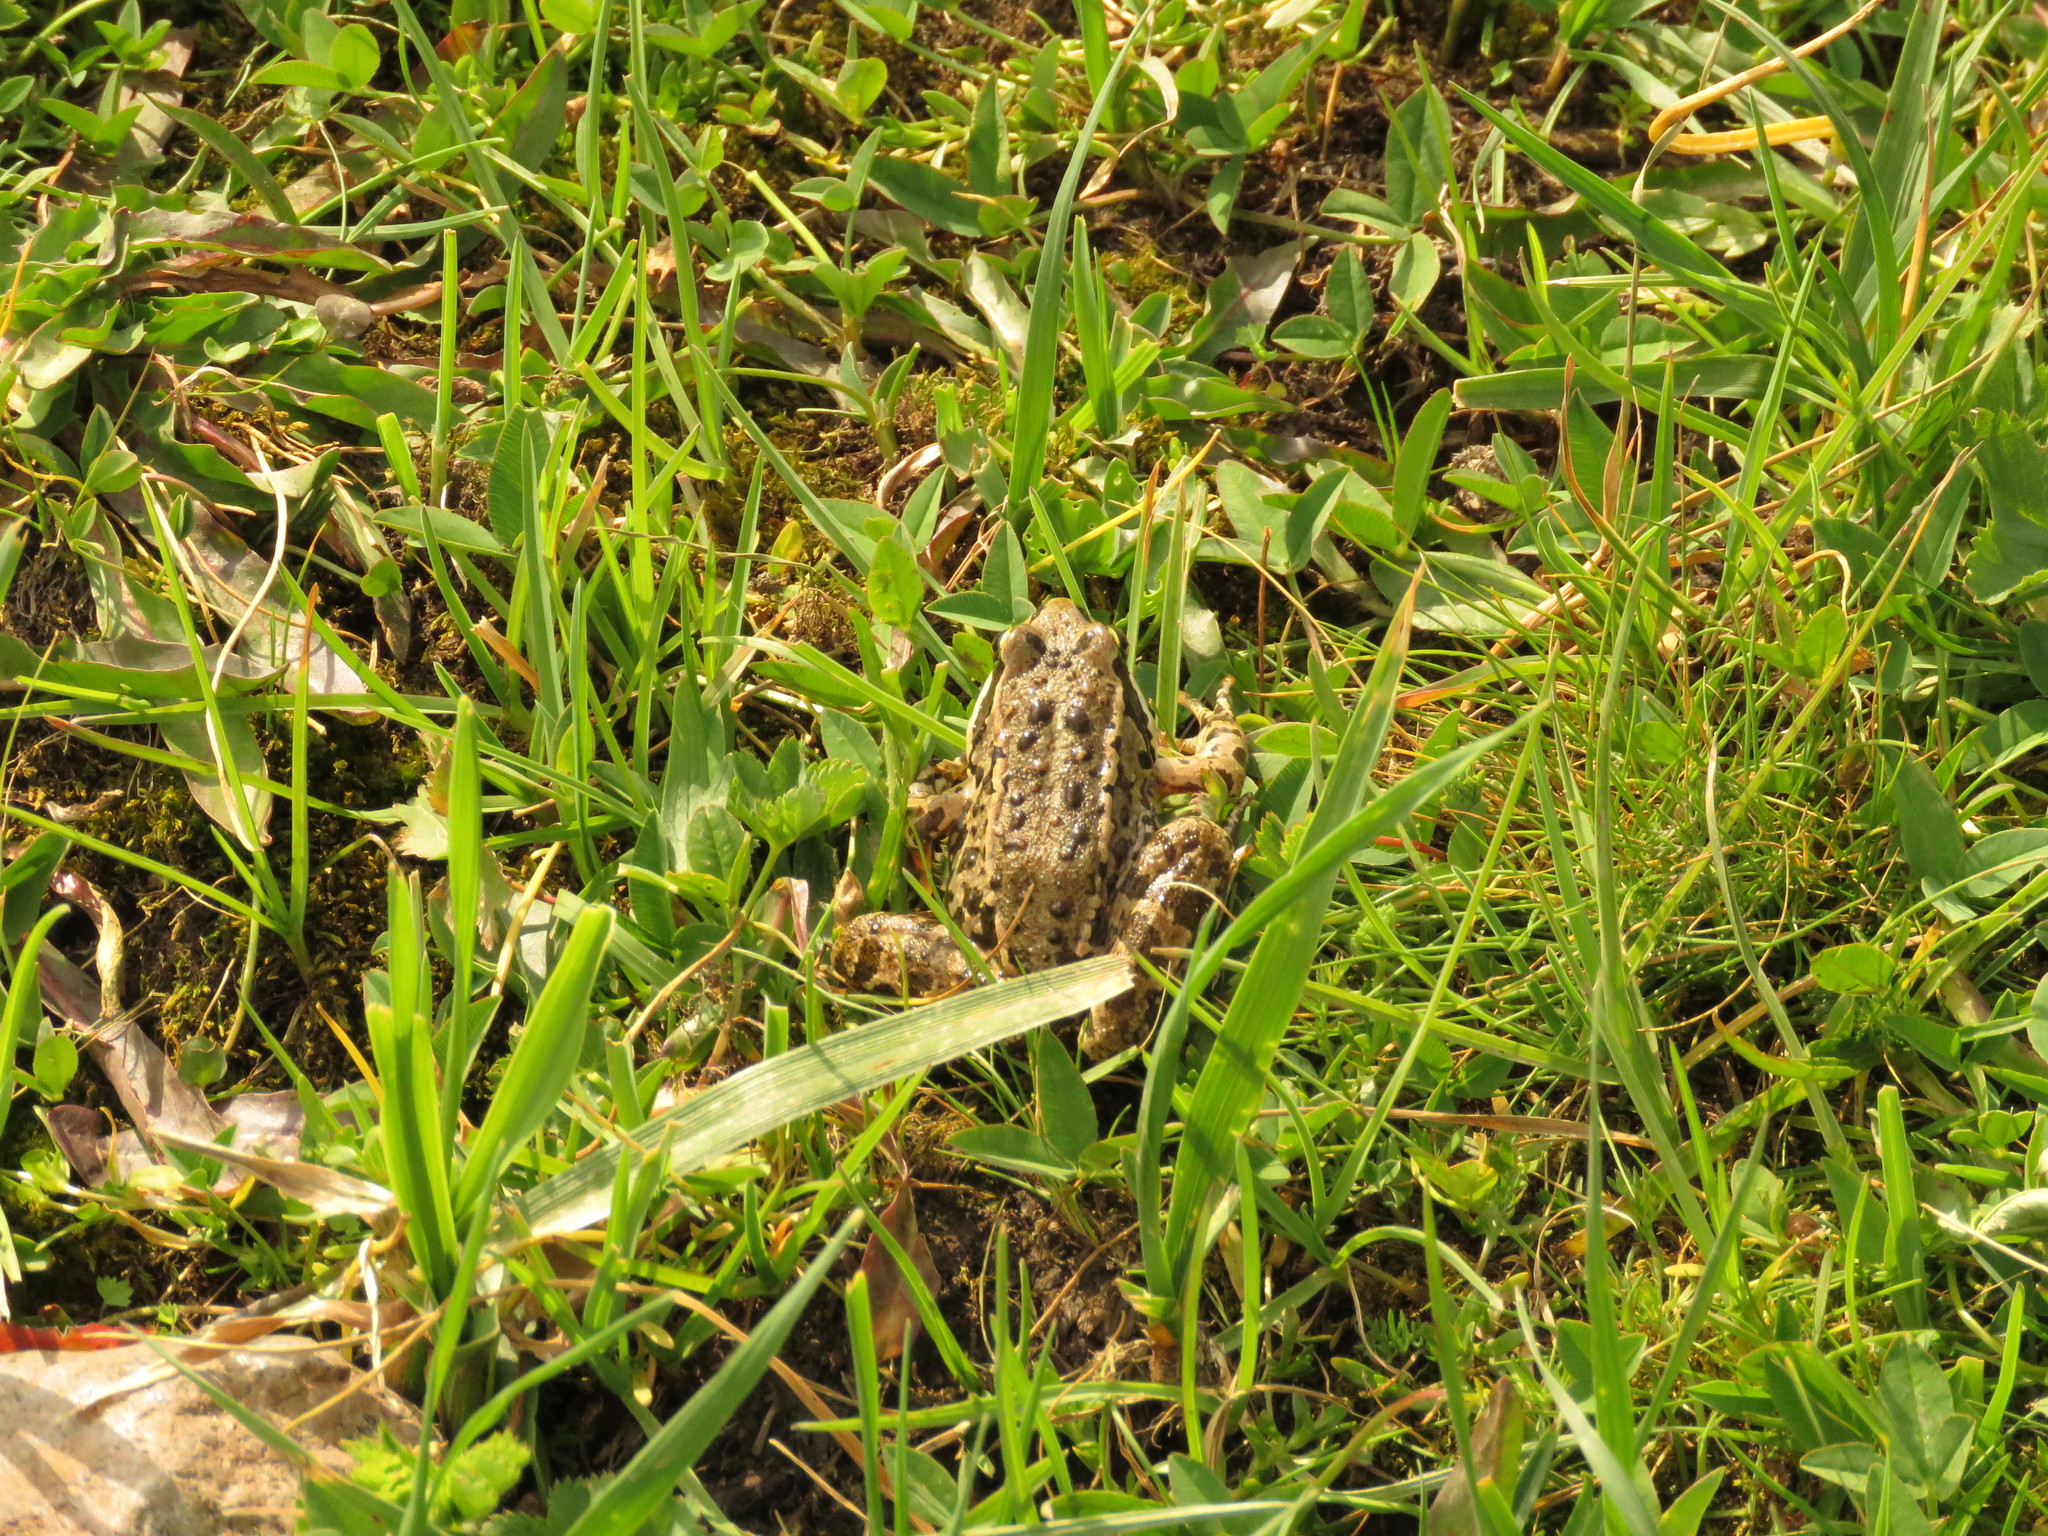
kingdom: Animalia
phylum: Chordata
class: Amphibia
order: Anura
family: Ranidae
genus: Rana
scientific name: Rana macrocnemis
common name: Banded frog
